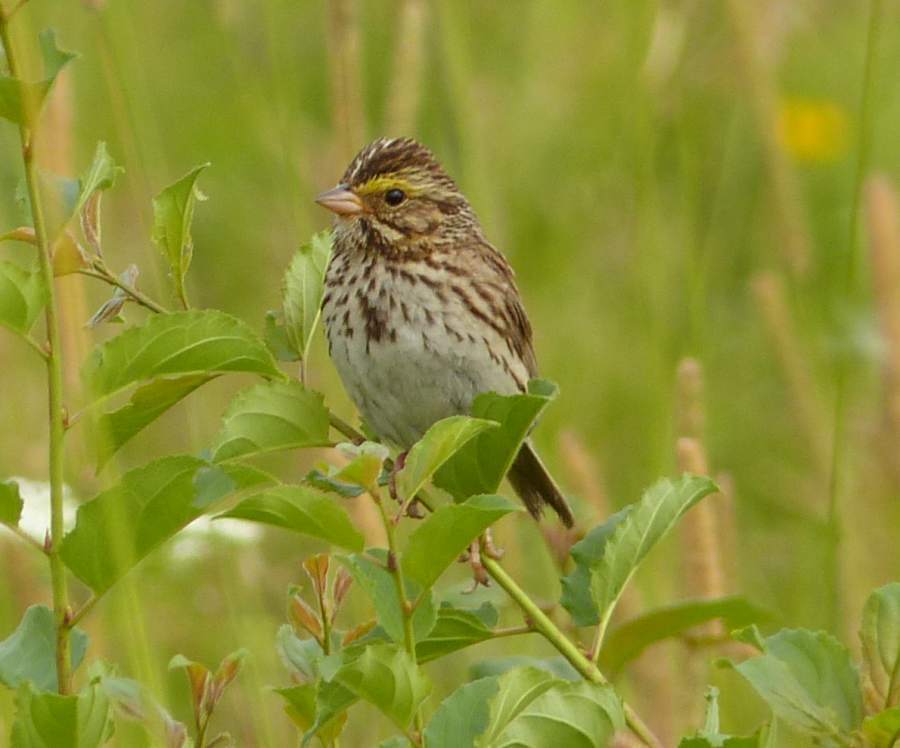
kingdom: Animalia
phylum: Chordata
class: Aves
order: Passeriformes
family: Passerellidae
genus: Passerculus
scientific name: Passerculus sandwichensis
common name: Savannah sparrow
